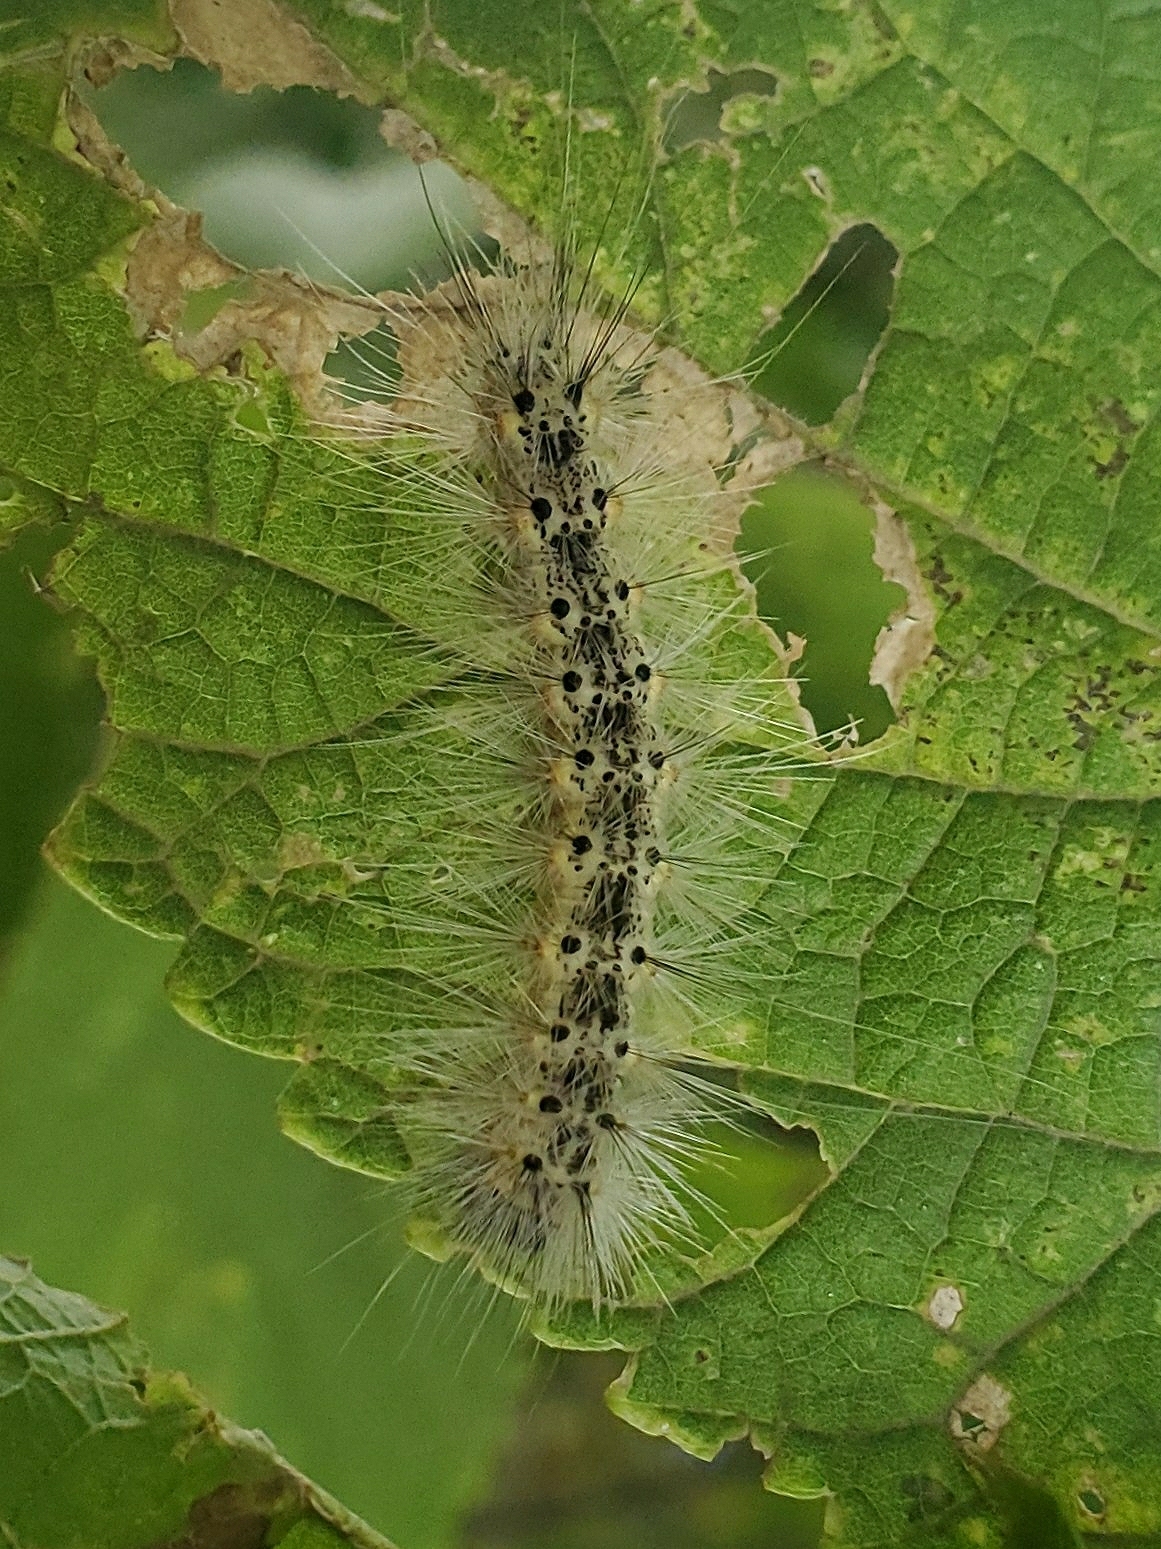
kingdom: Animalia
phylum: Arthropoda
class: Insecta
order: Lepidoptera
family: Erebidae
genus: Hyphantria
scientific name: Hyphantria cunea
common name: American white moth
